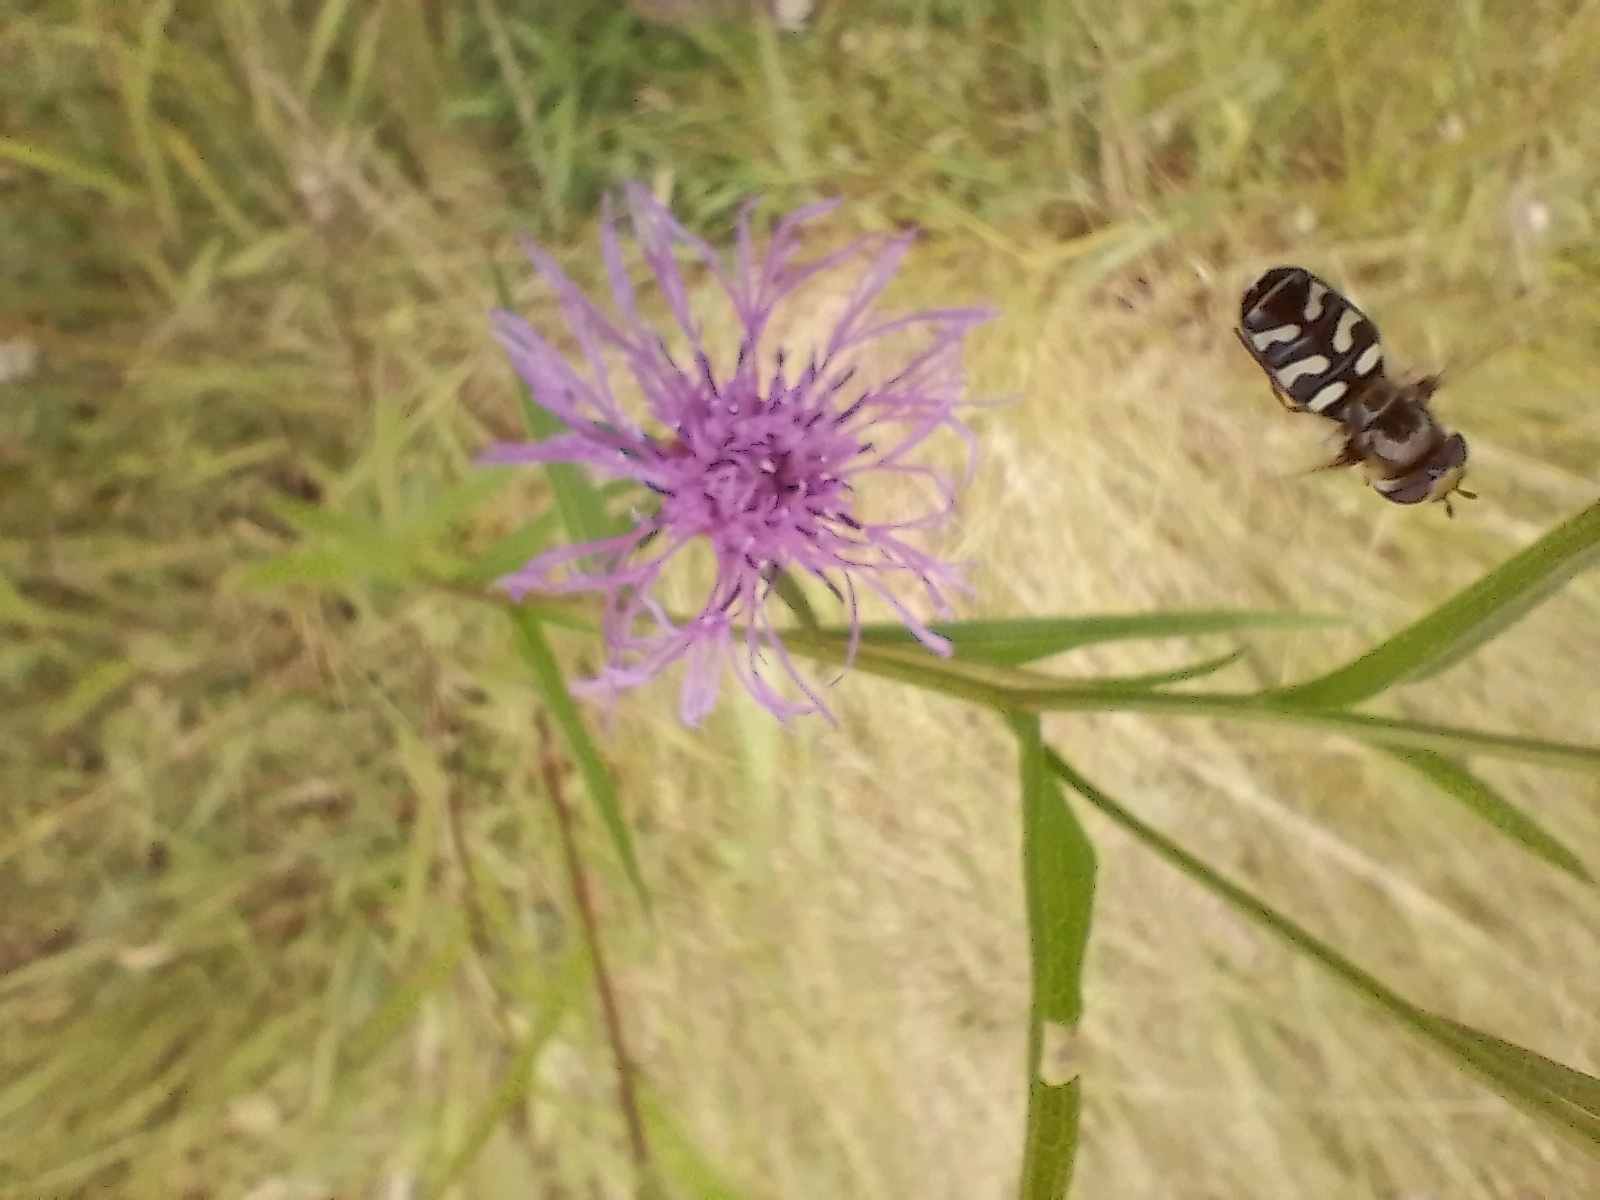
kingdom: Animalia
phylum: Arthropoda
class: Insecta
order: Diptera
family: Syrphidae
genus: Scaeva
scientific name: Scaeva pyrastri
